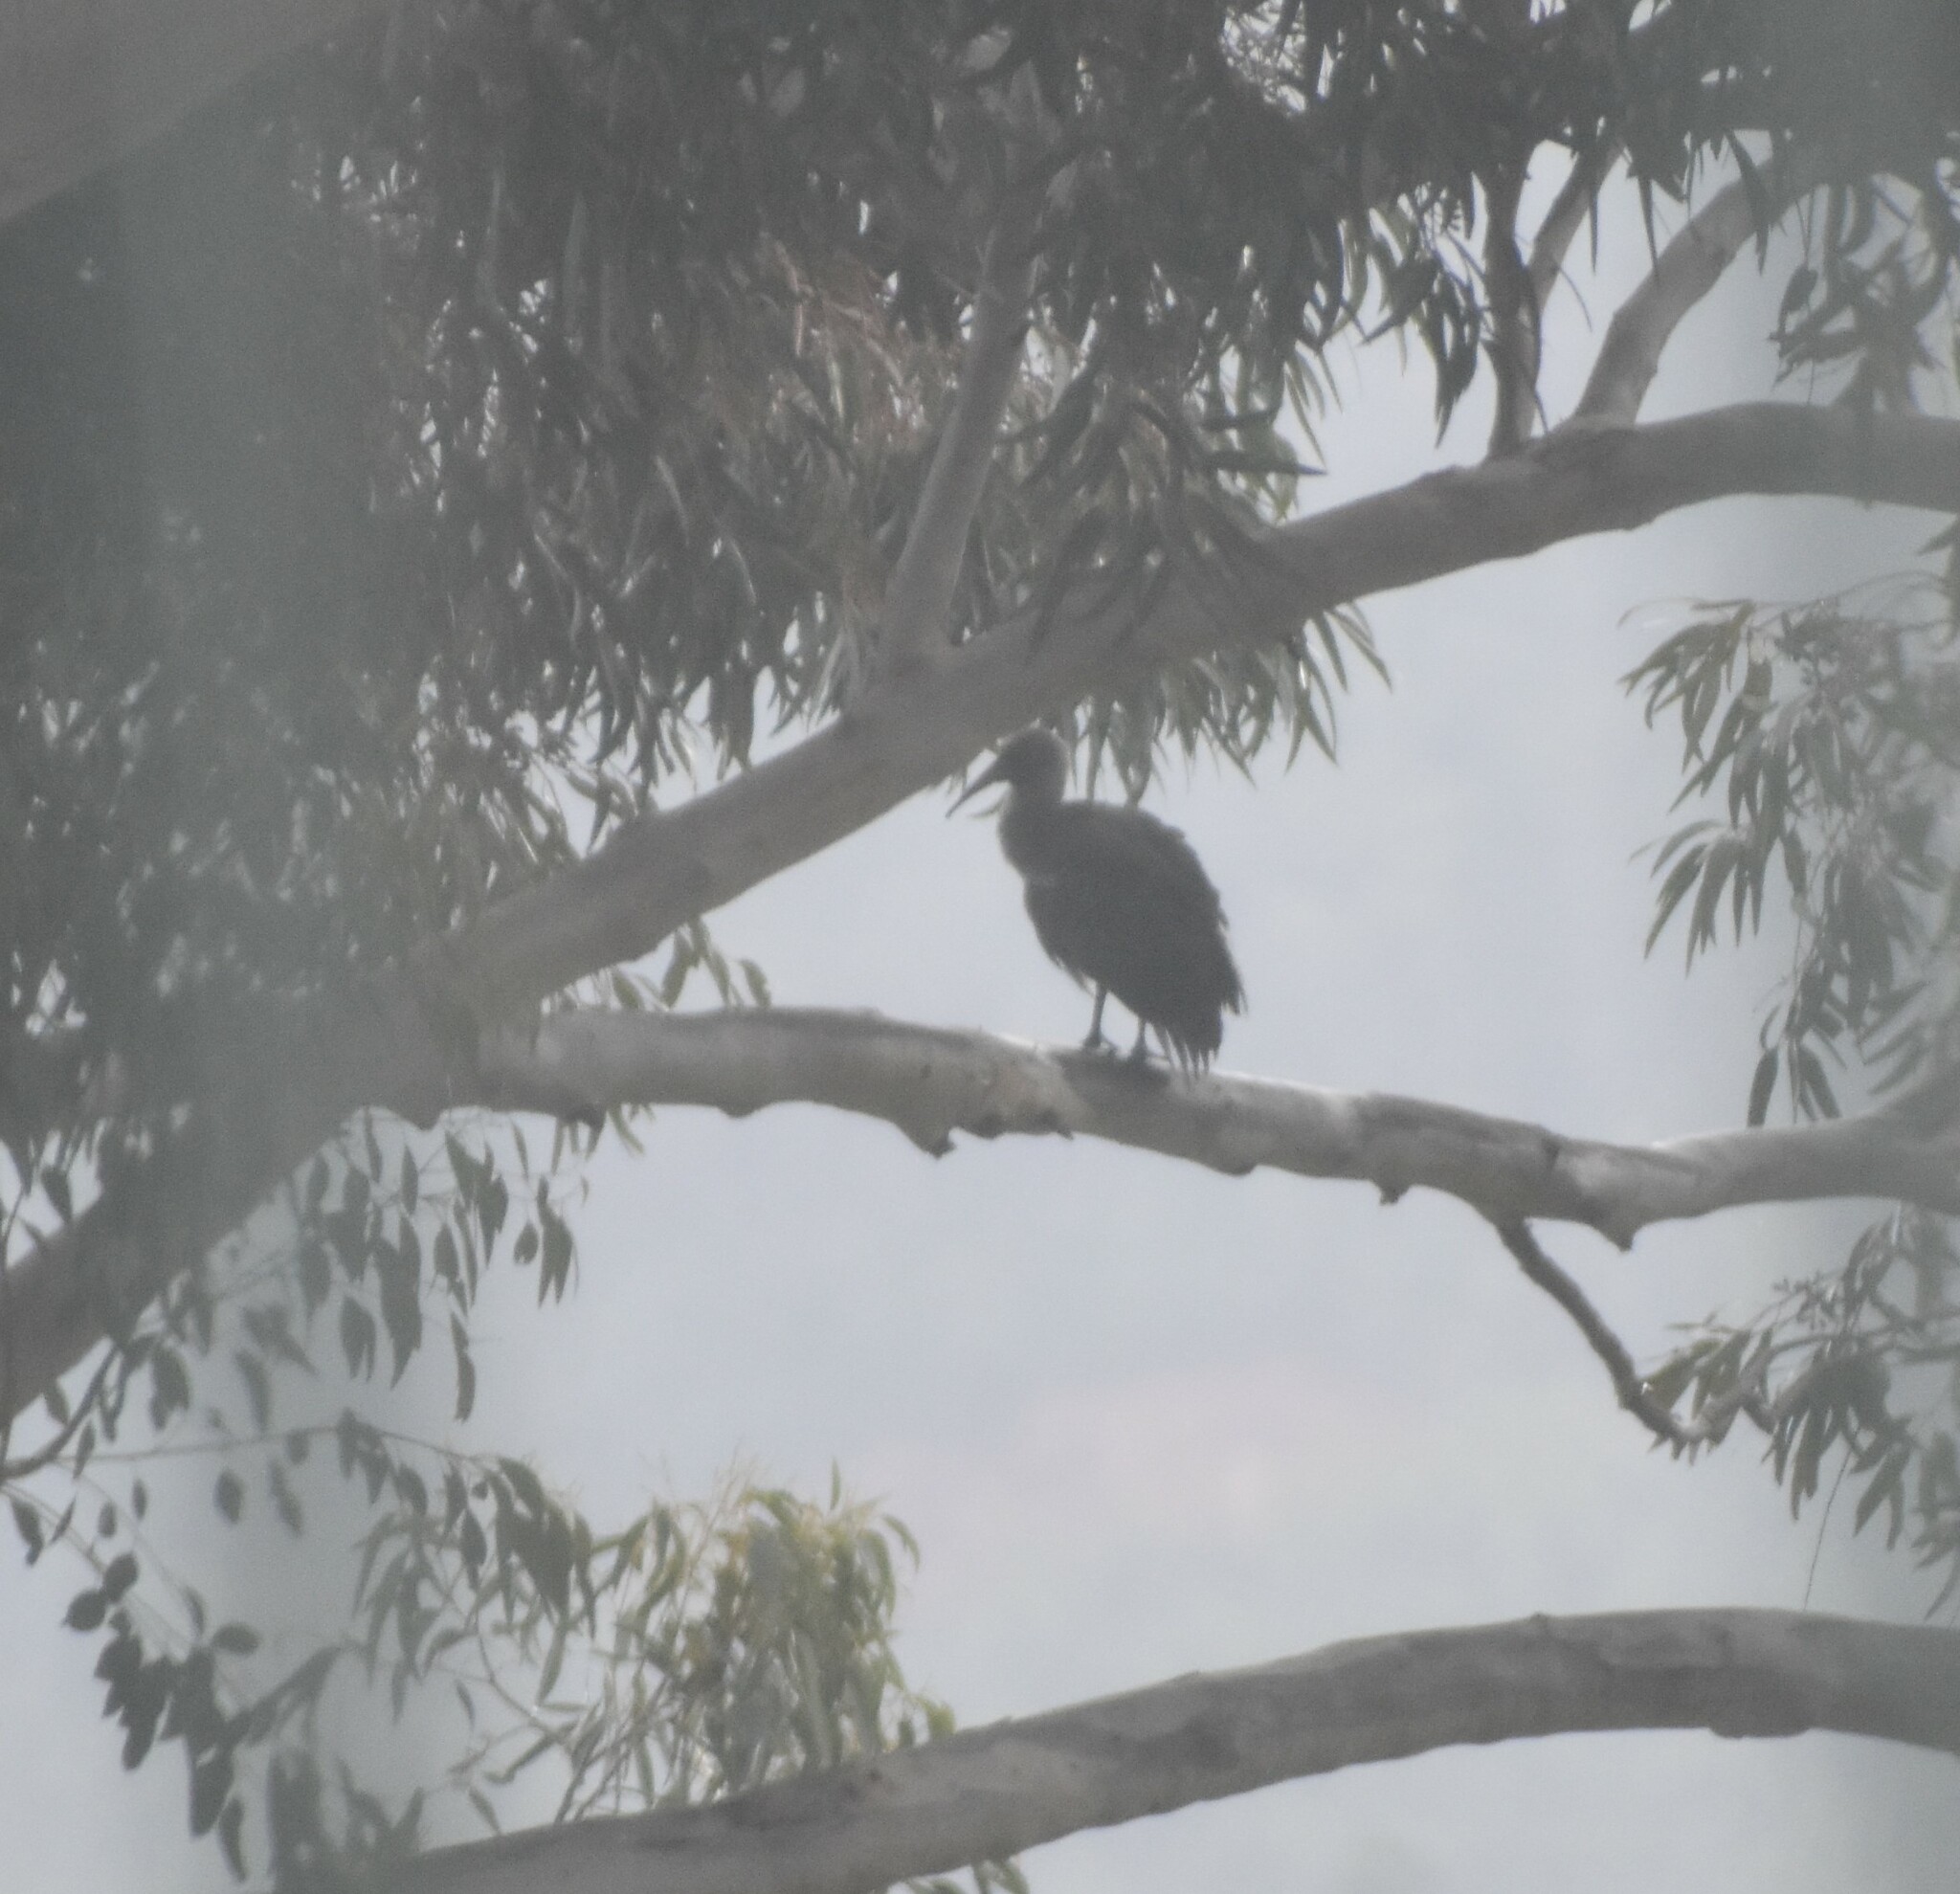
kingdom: Animalia
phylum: Chordata
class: Aves
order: Pelecaniformes
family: Threskiornithidae
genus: Bostrychia
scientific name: Bostrychia hagedash
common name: Hadada ibis
